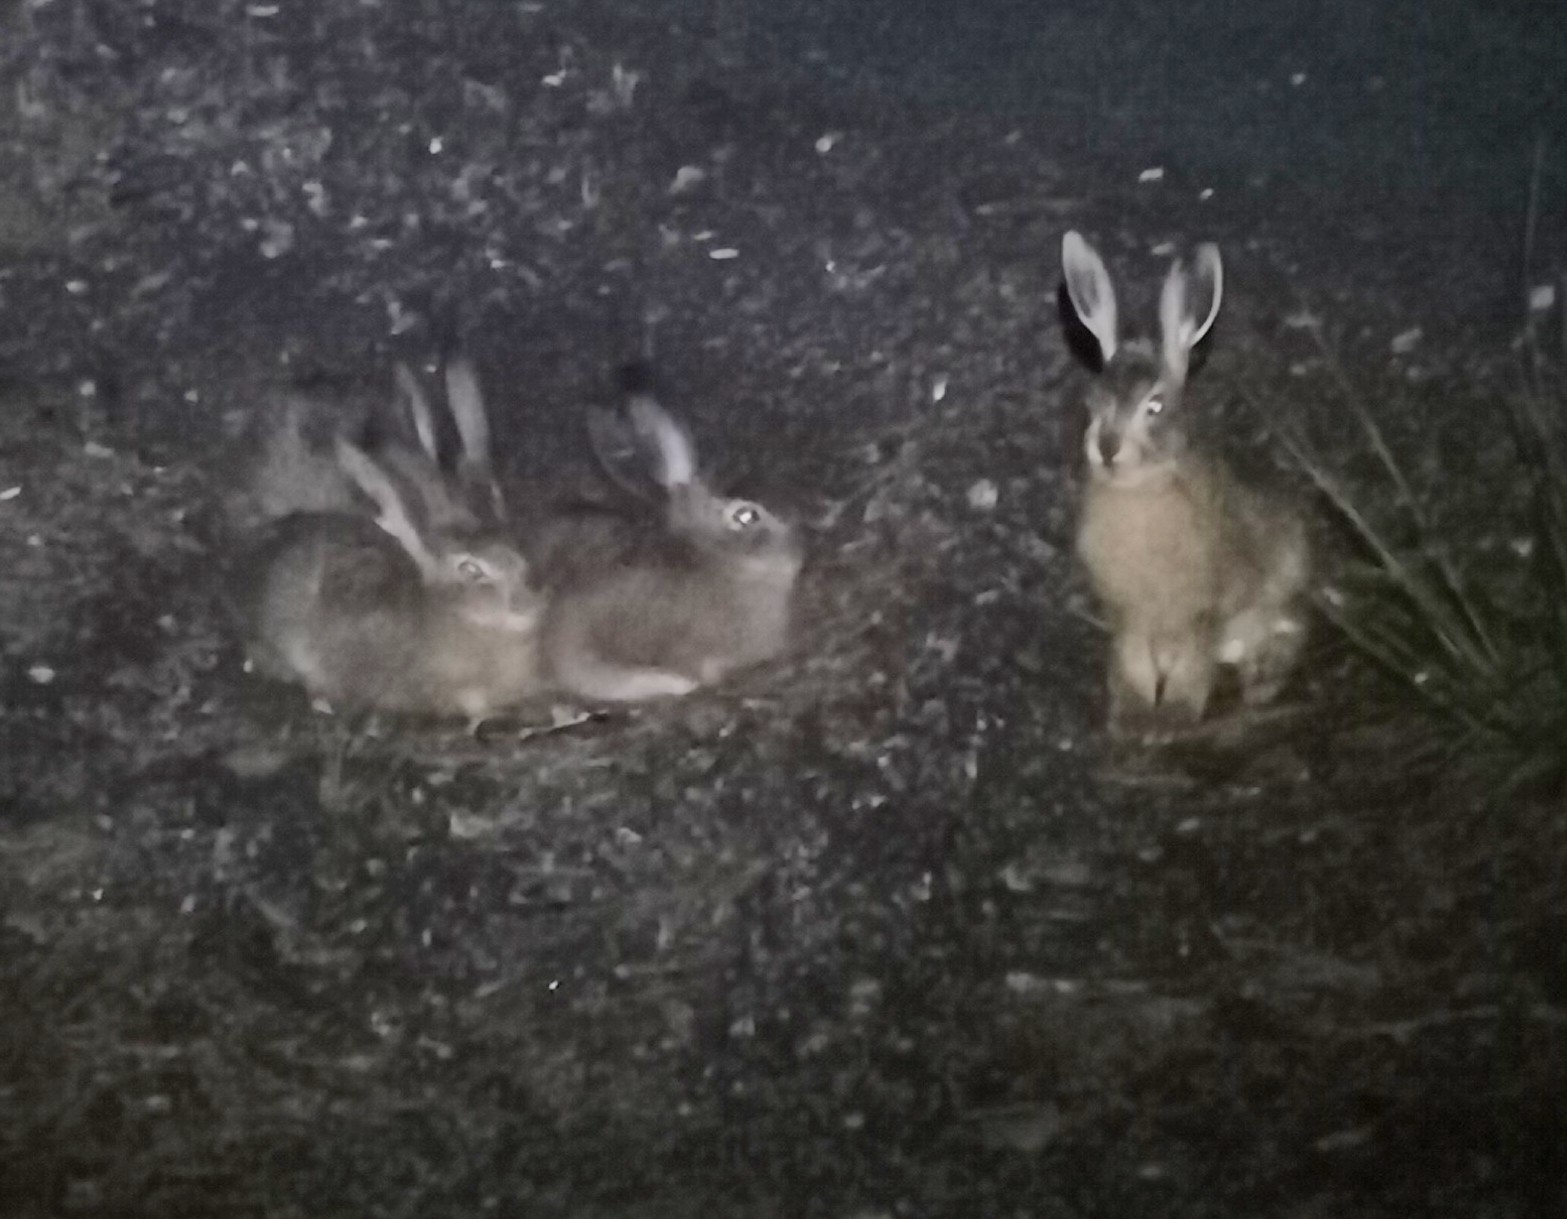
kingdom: Animalia
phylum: Chordata
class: Mammalia
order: Lagomorpha
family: Leporidae
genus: Lepus
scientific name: Lepus europaeus
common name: European hare
